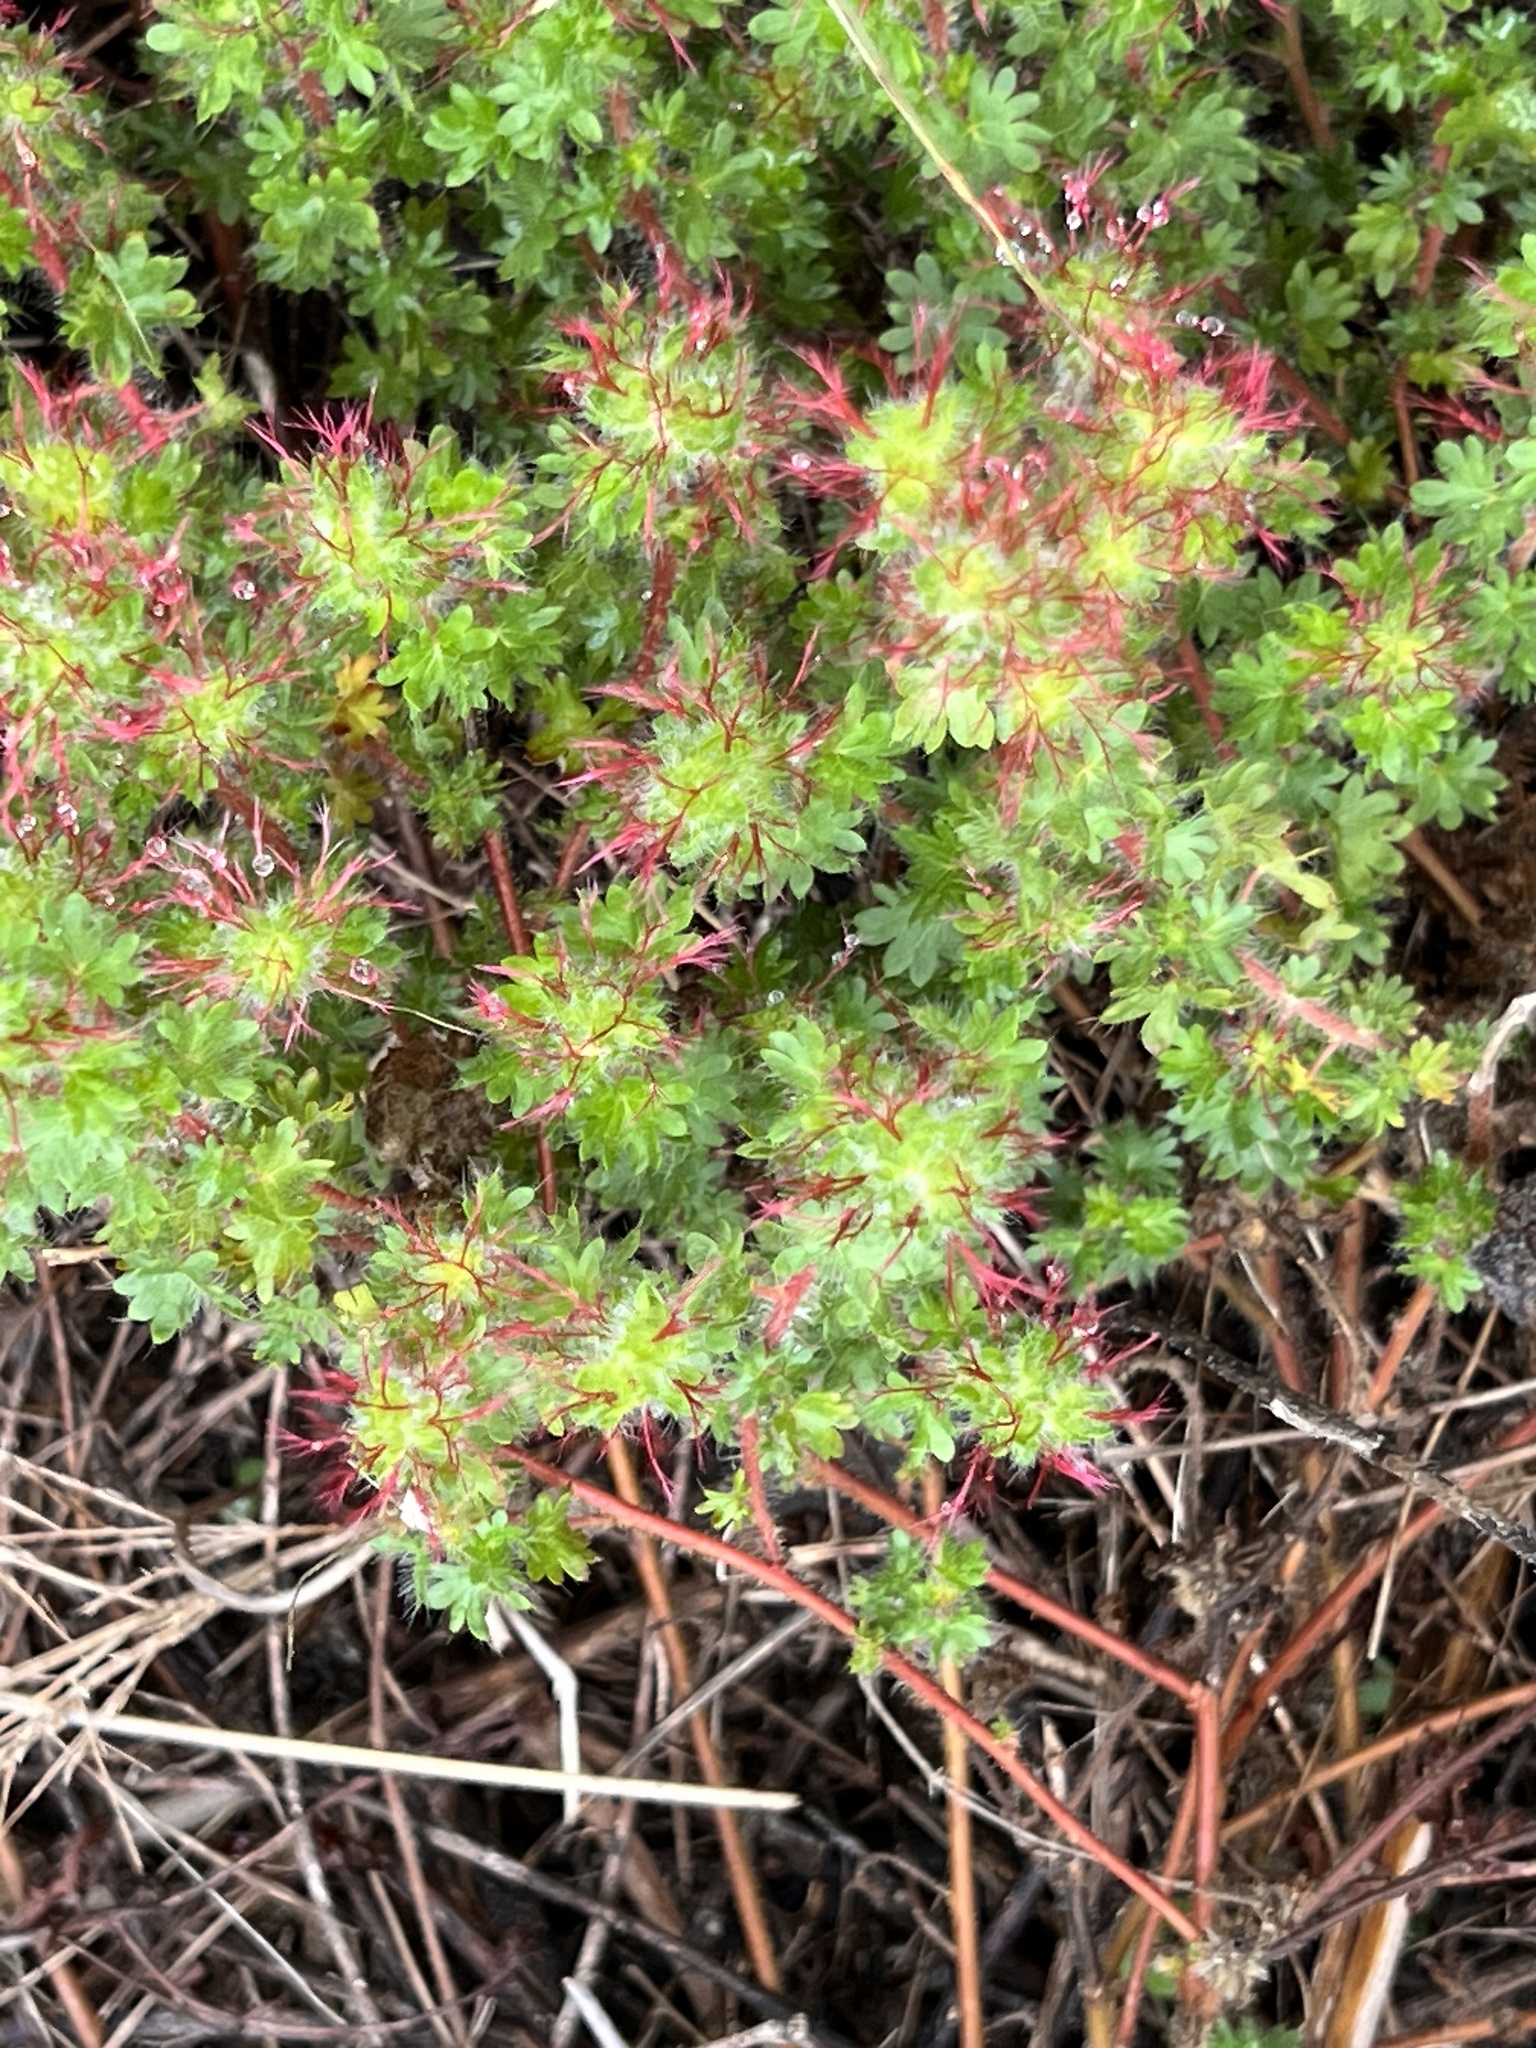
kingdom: Plantae
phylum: Tracheophyta
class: Magnoliopsida
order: Malpighiales
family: Euphorbiaceae
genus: Acalypha
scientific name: Acalypha radians
